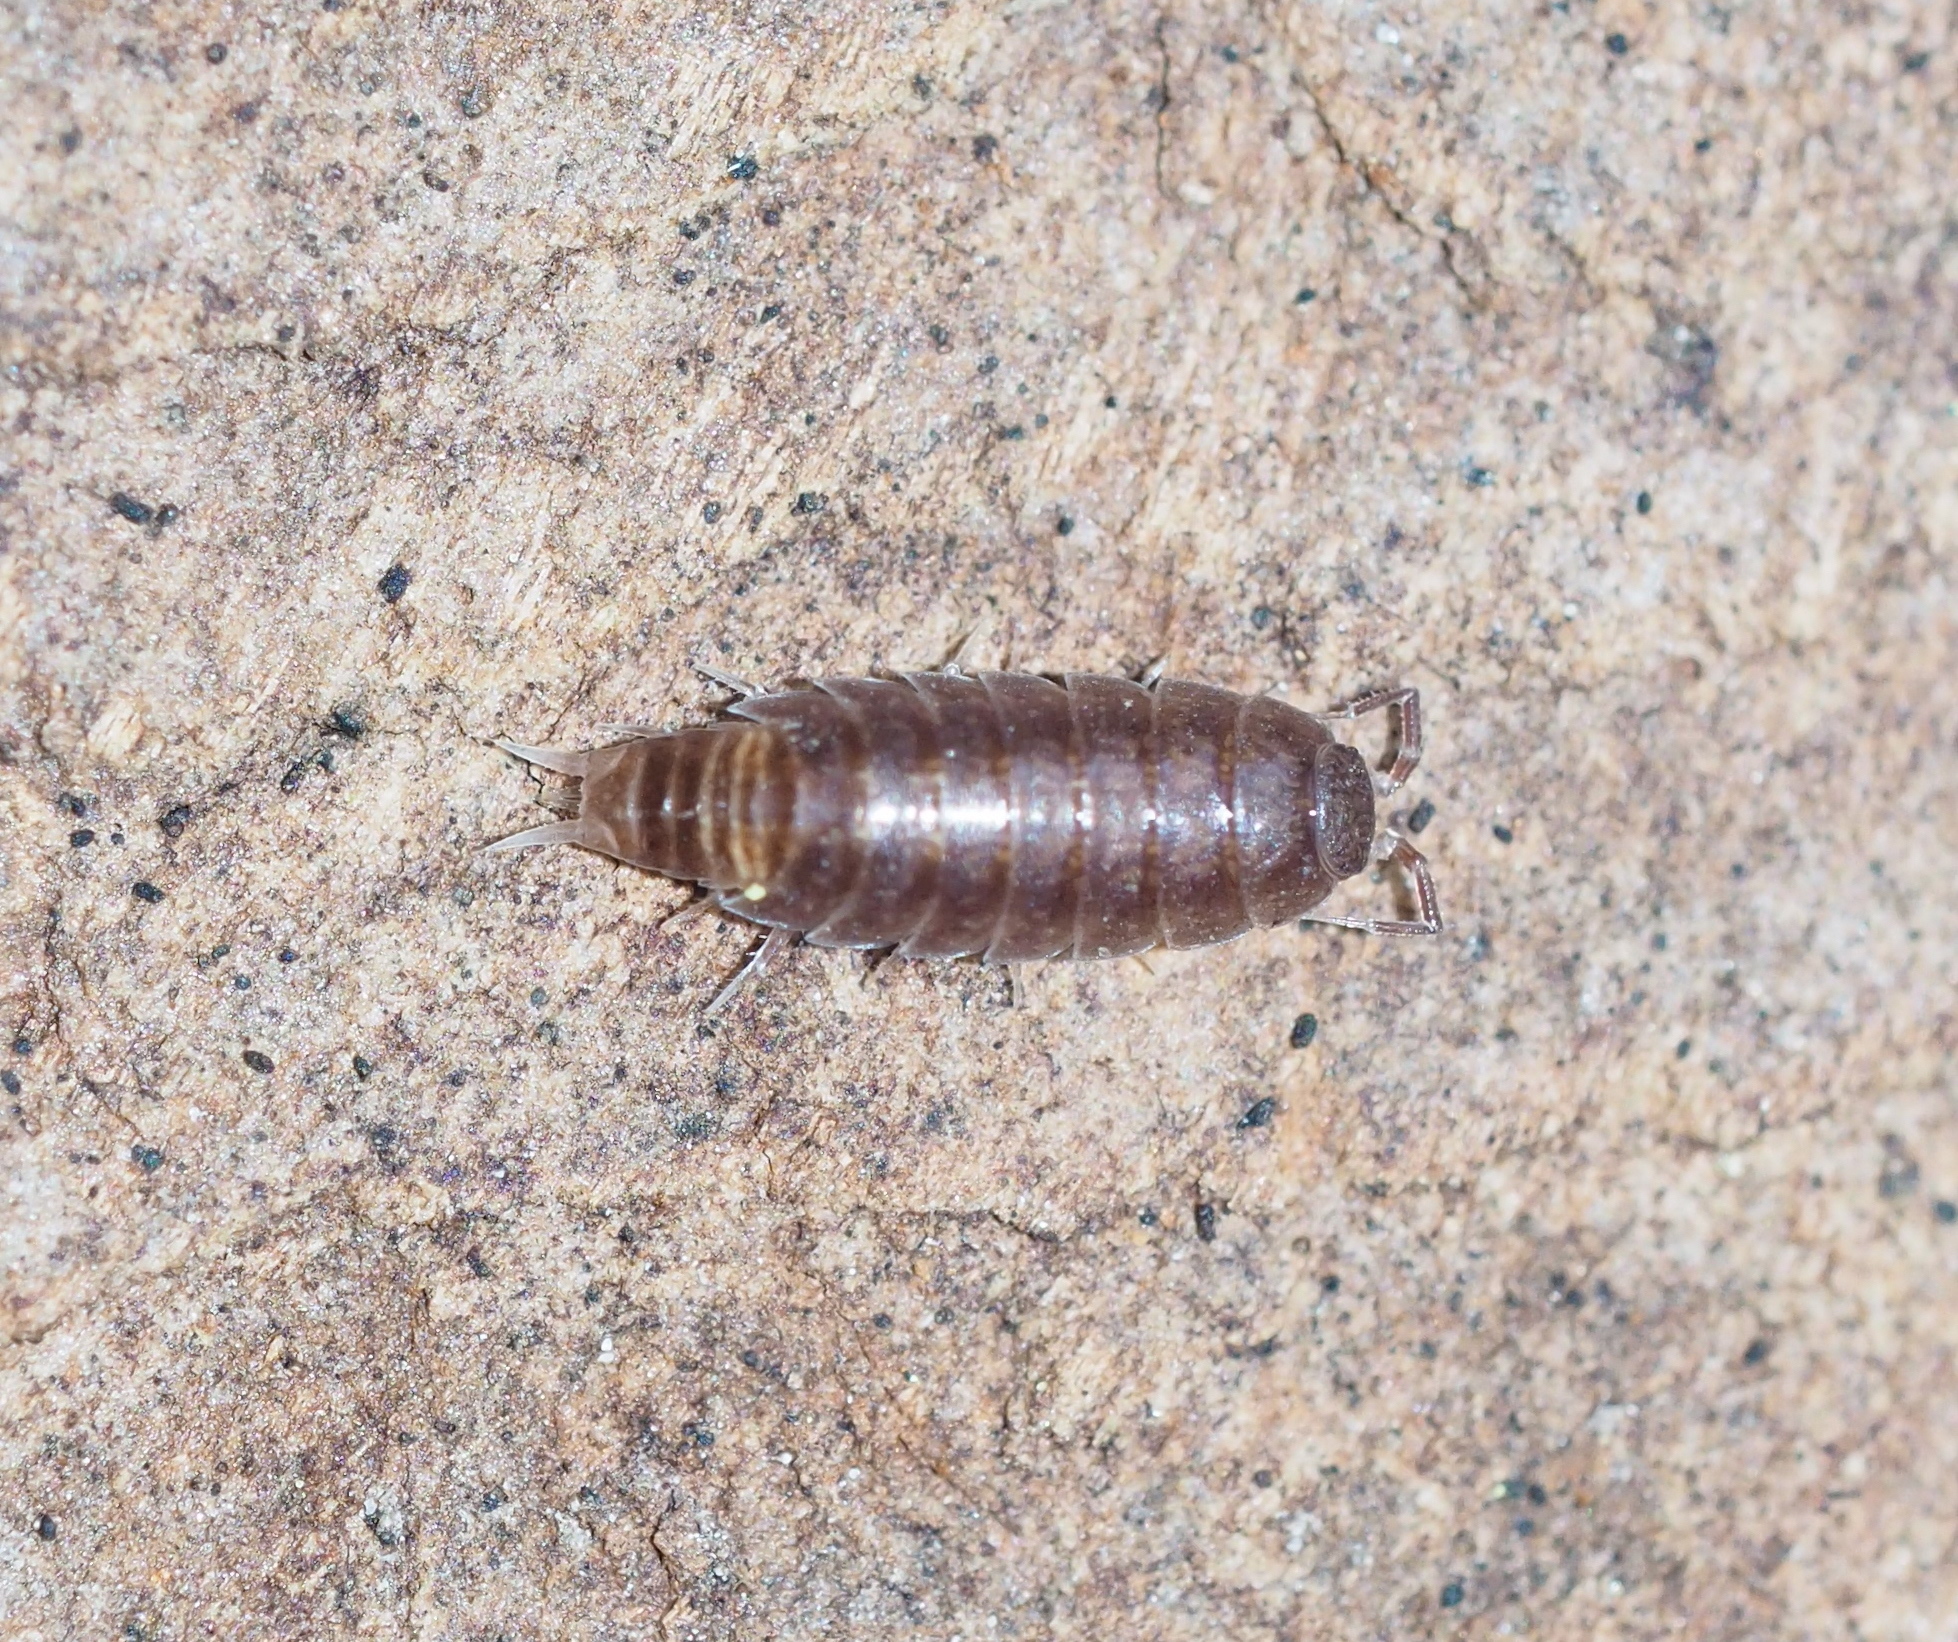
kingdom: Animalia
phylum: Arthropoda
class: Malacostraca
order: Isopoda
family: Trichoniscidae
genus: Hyloniscus
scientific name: Hyloniscus riparius
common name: Isopod
